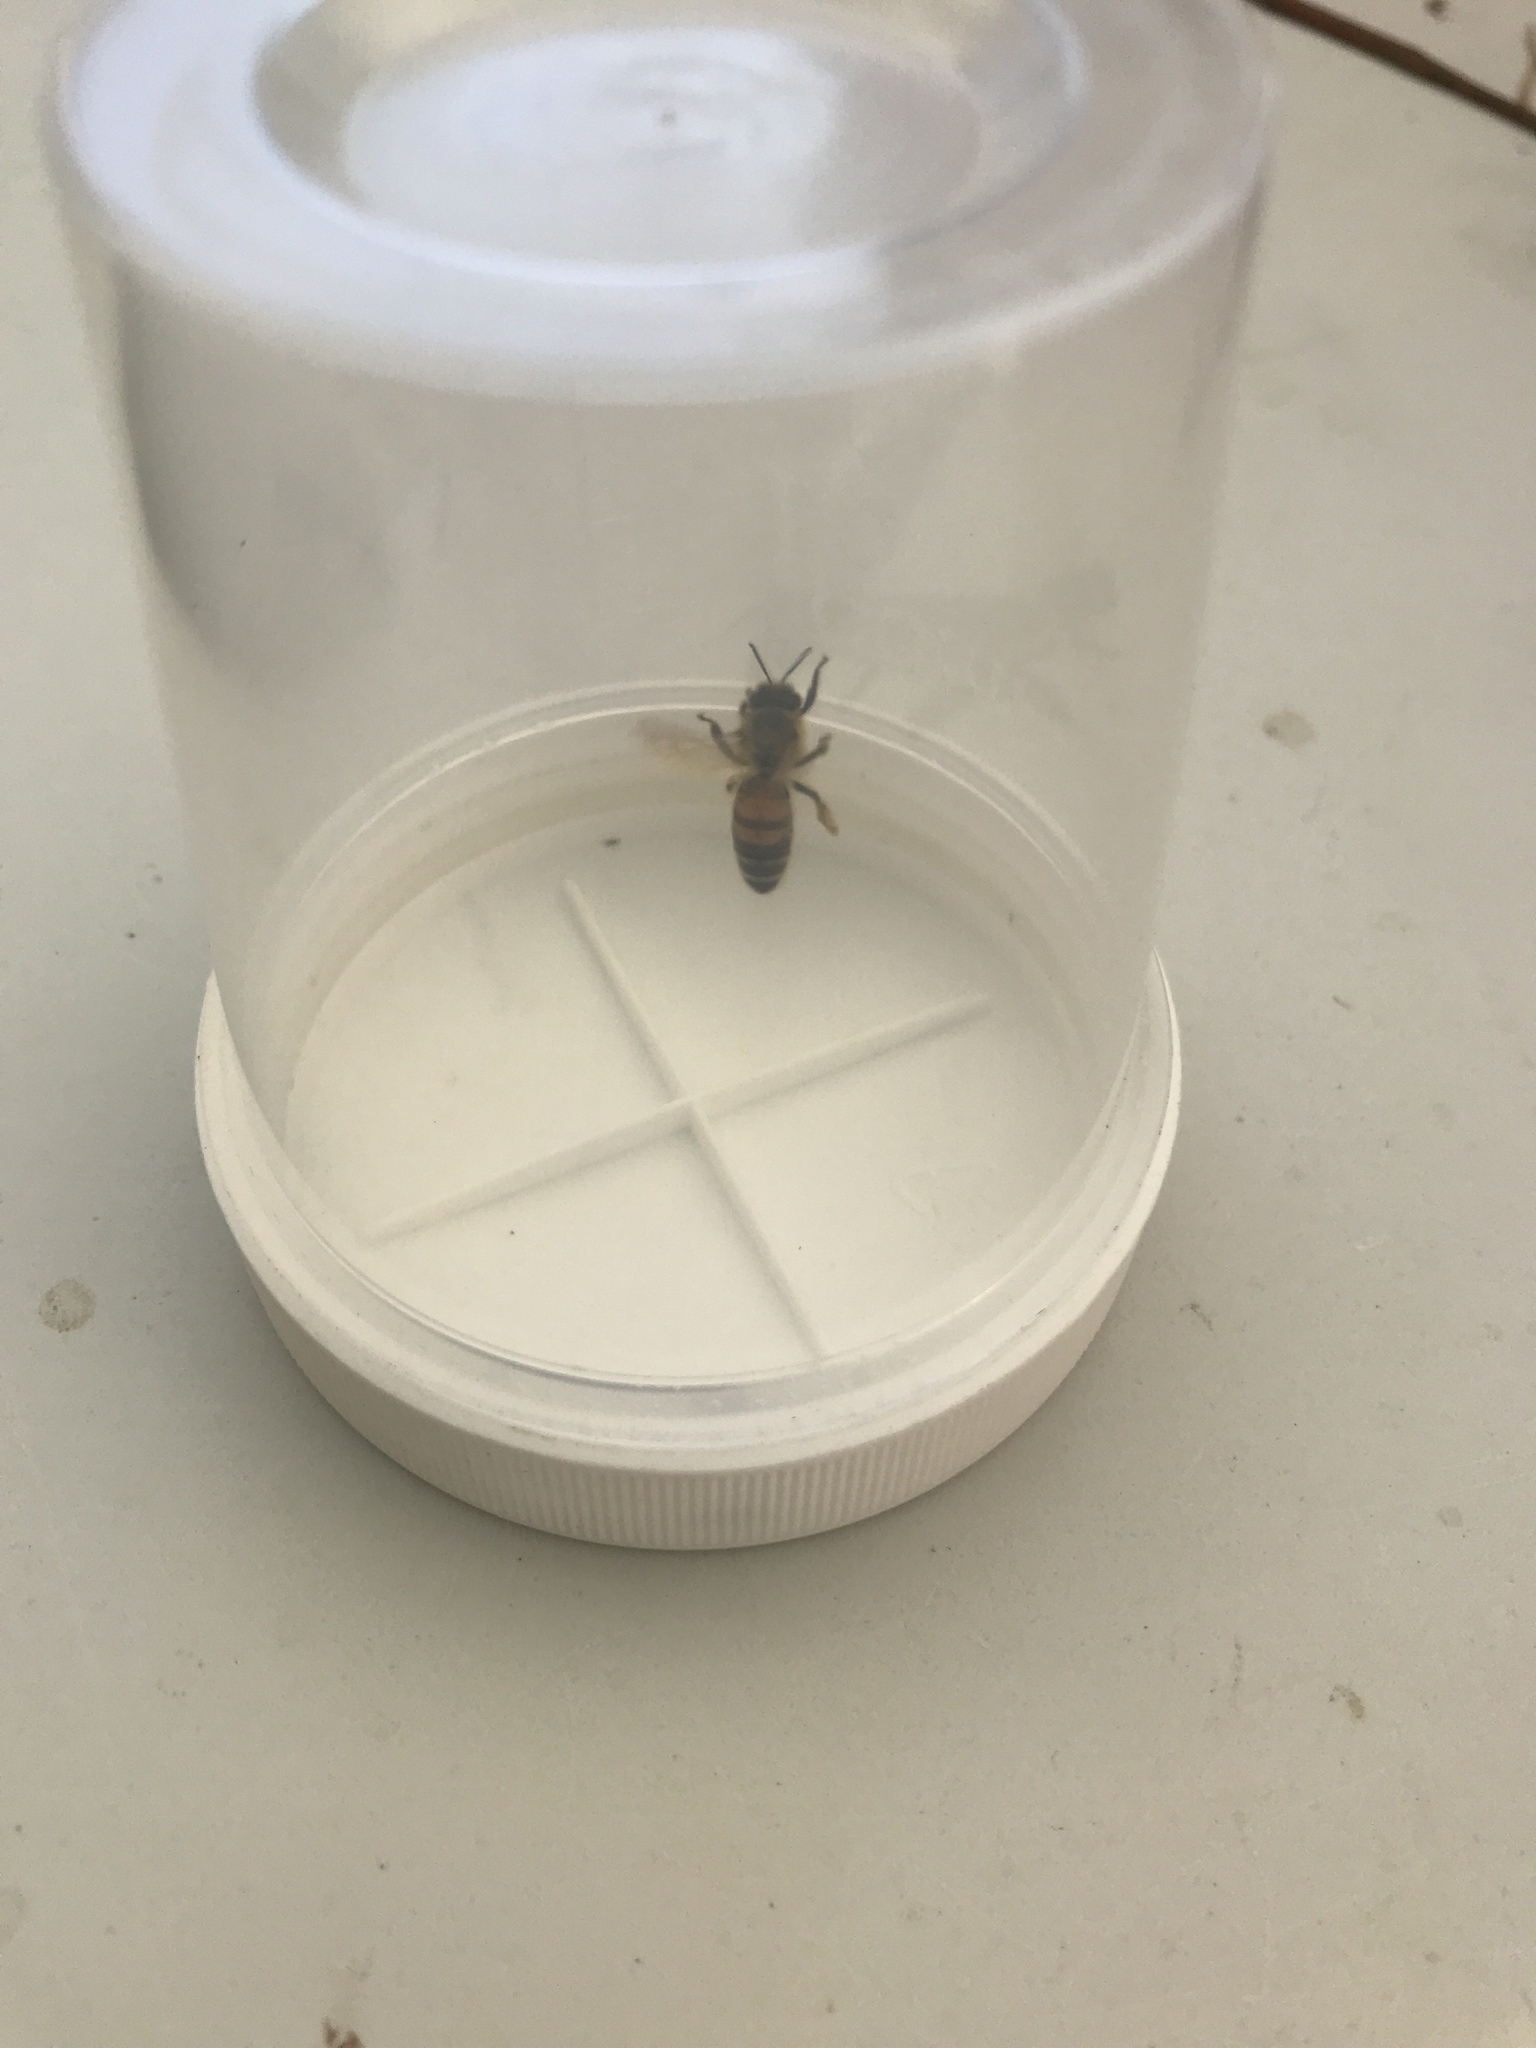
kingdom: Animalia
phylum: Arthropoda
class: Insecta
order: Hymenoptera
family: Apidae
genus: Apis
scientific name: Apis mellifera
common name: Honey bee
